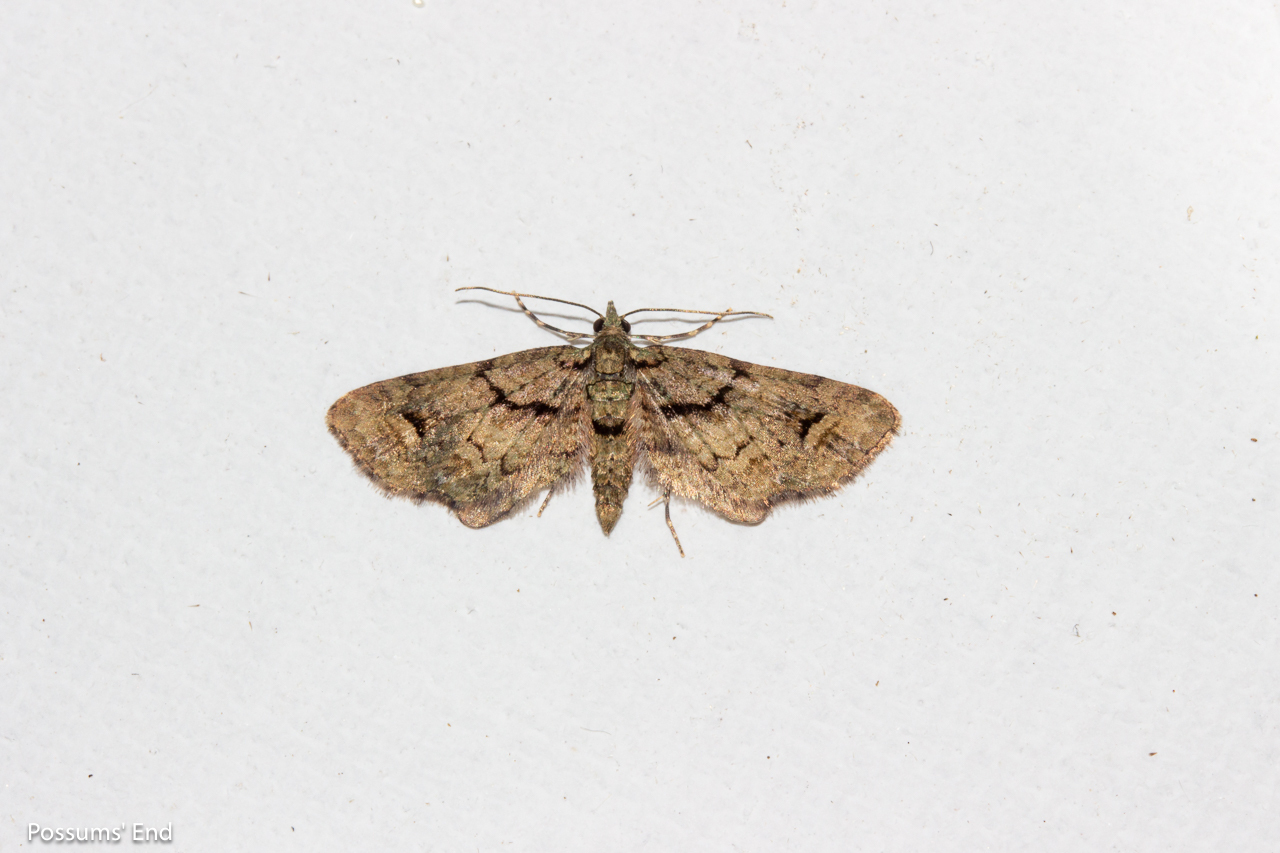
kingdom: Animalia
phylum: Arthropoda
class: Insecta
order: Lepidoptera
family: Geometridae
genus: Idaea
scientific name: Idaea mutanda
